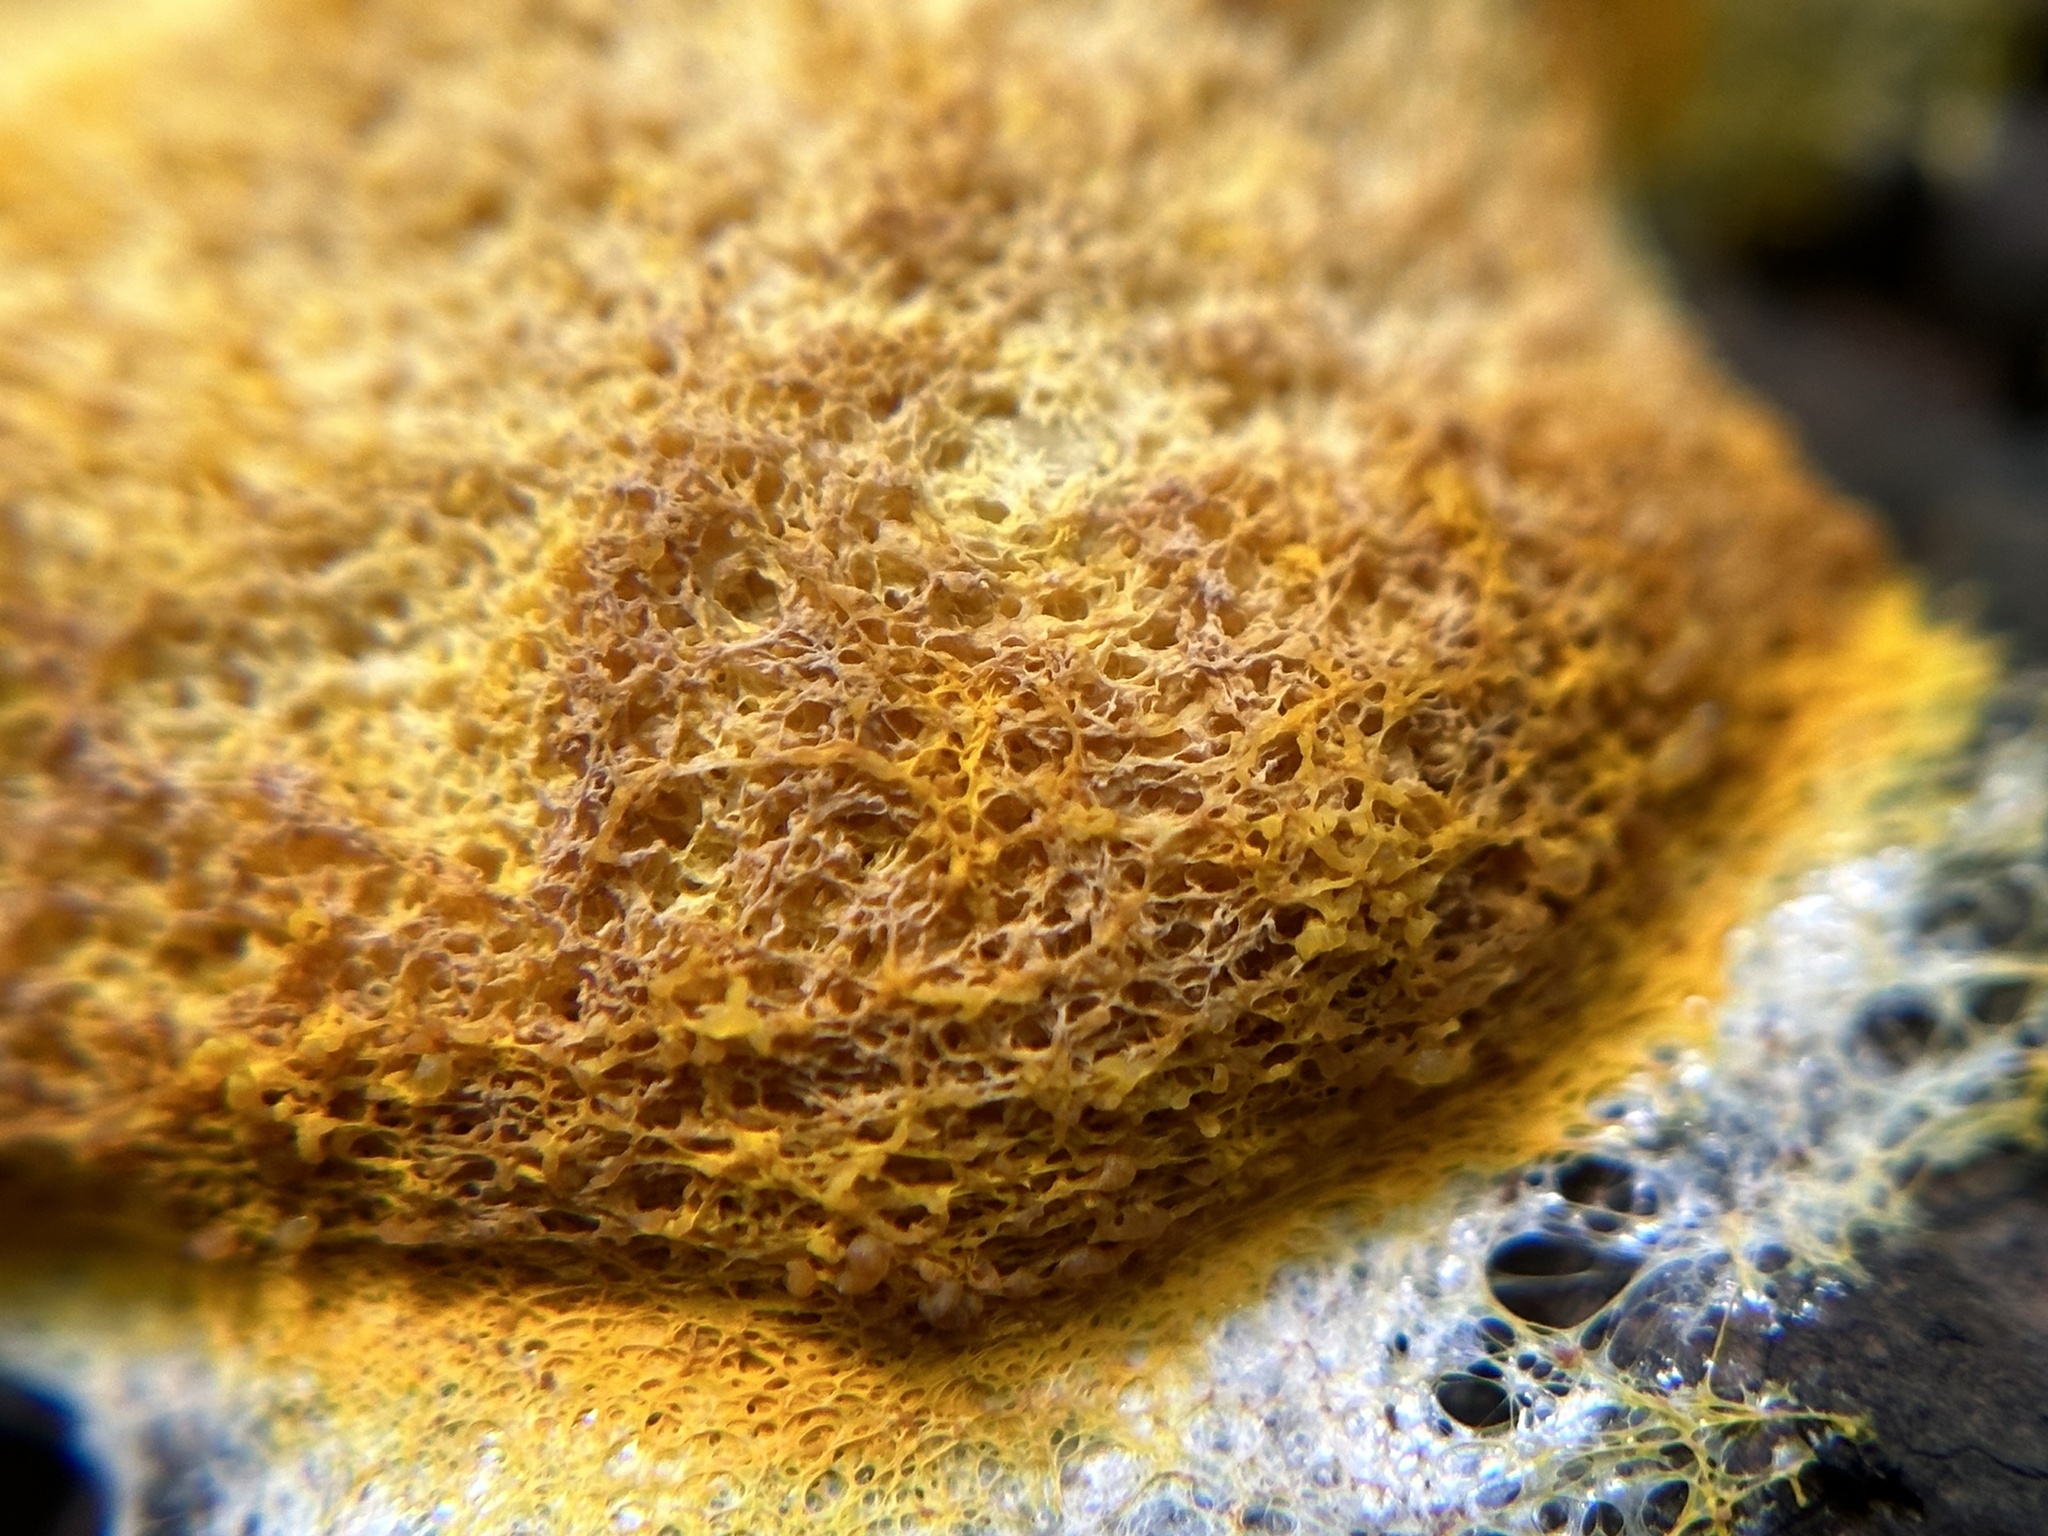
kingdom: Protozoa
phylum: Mycetozoa
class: Myxomycetes
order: Physarales
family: Physaraceae
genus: Fuligo
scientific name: Fuligo septica
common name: Dog vomit slime mold
